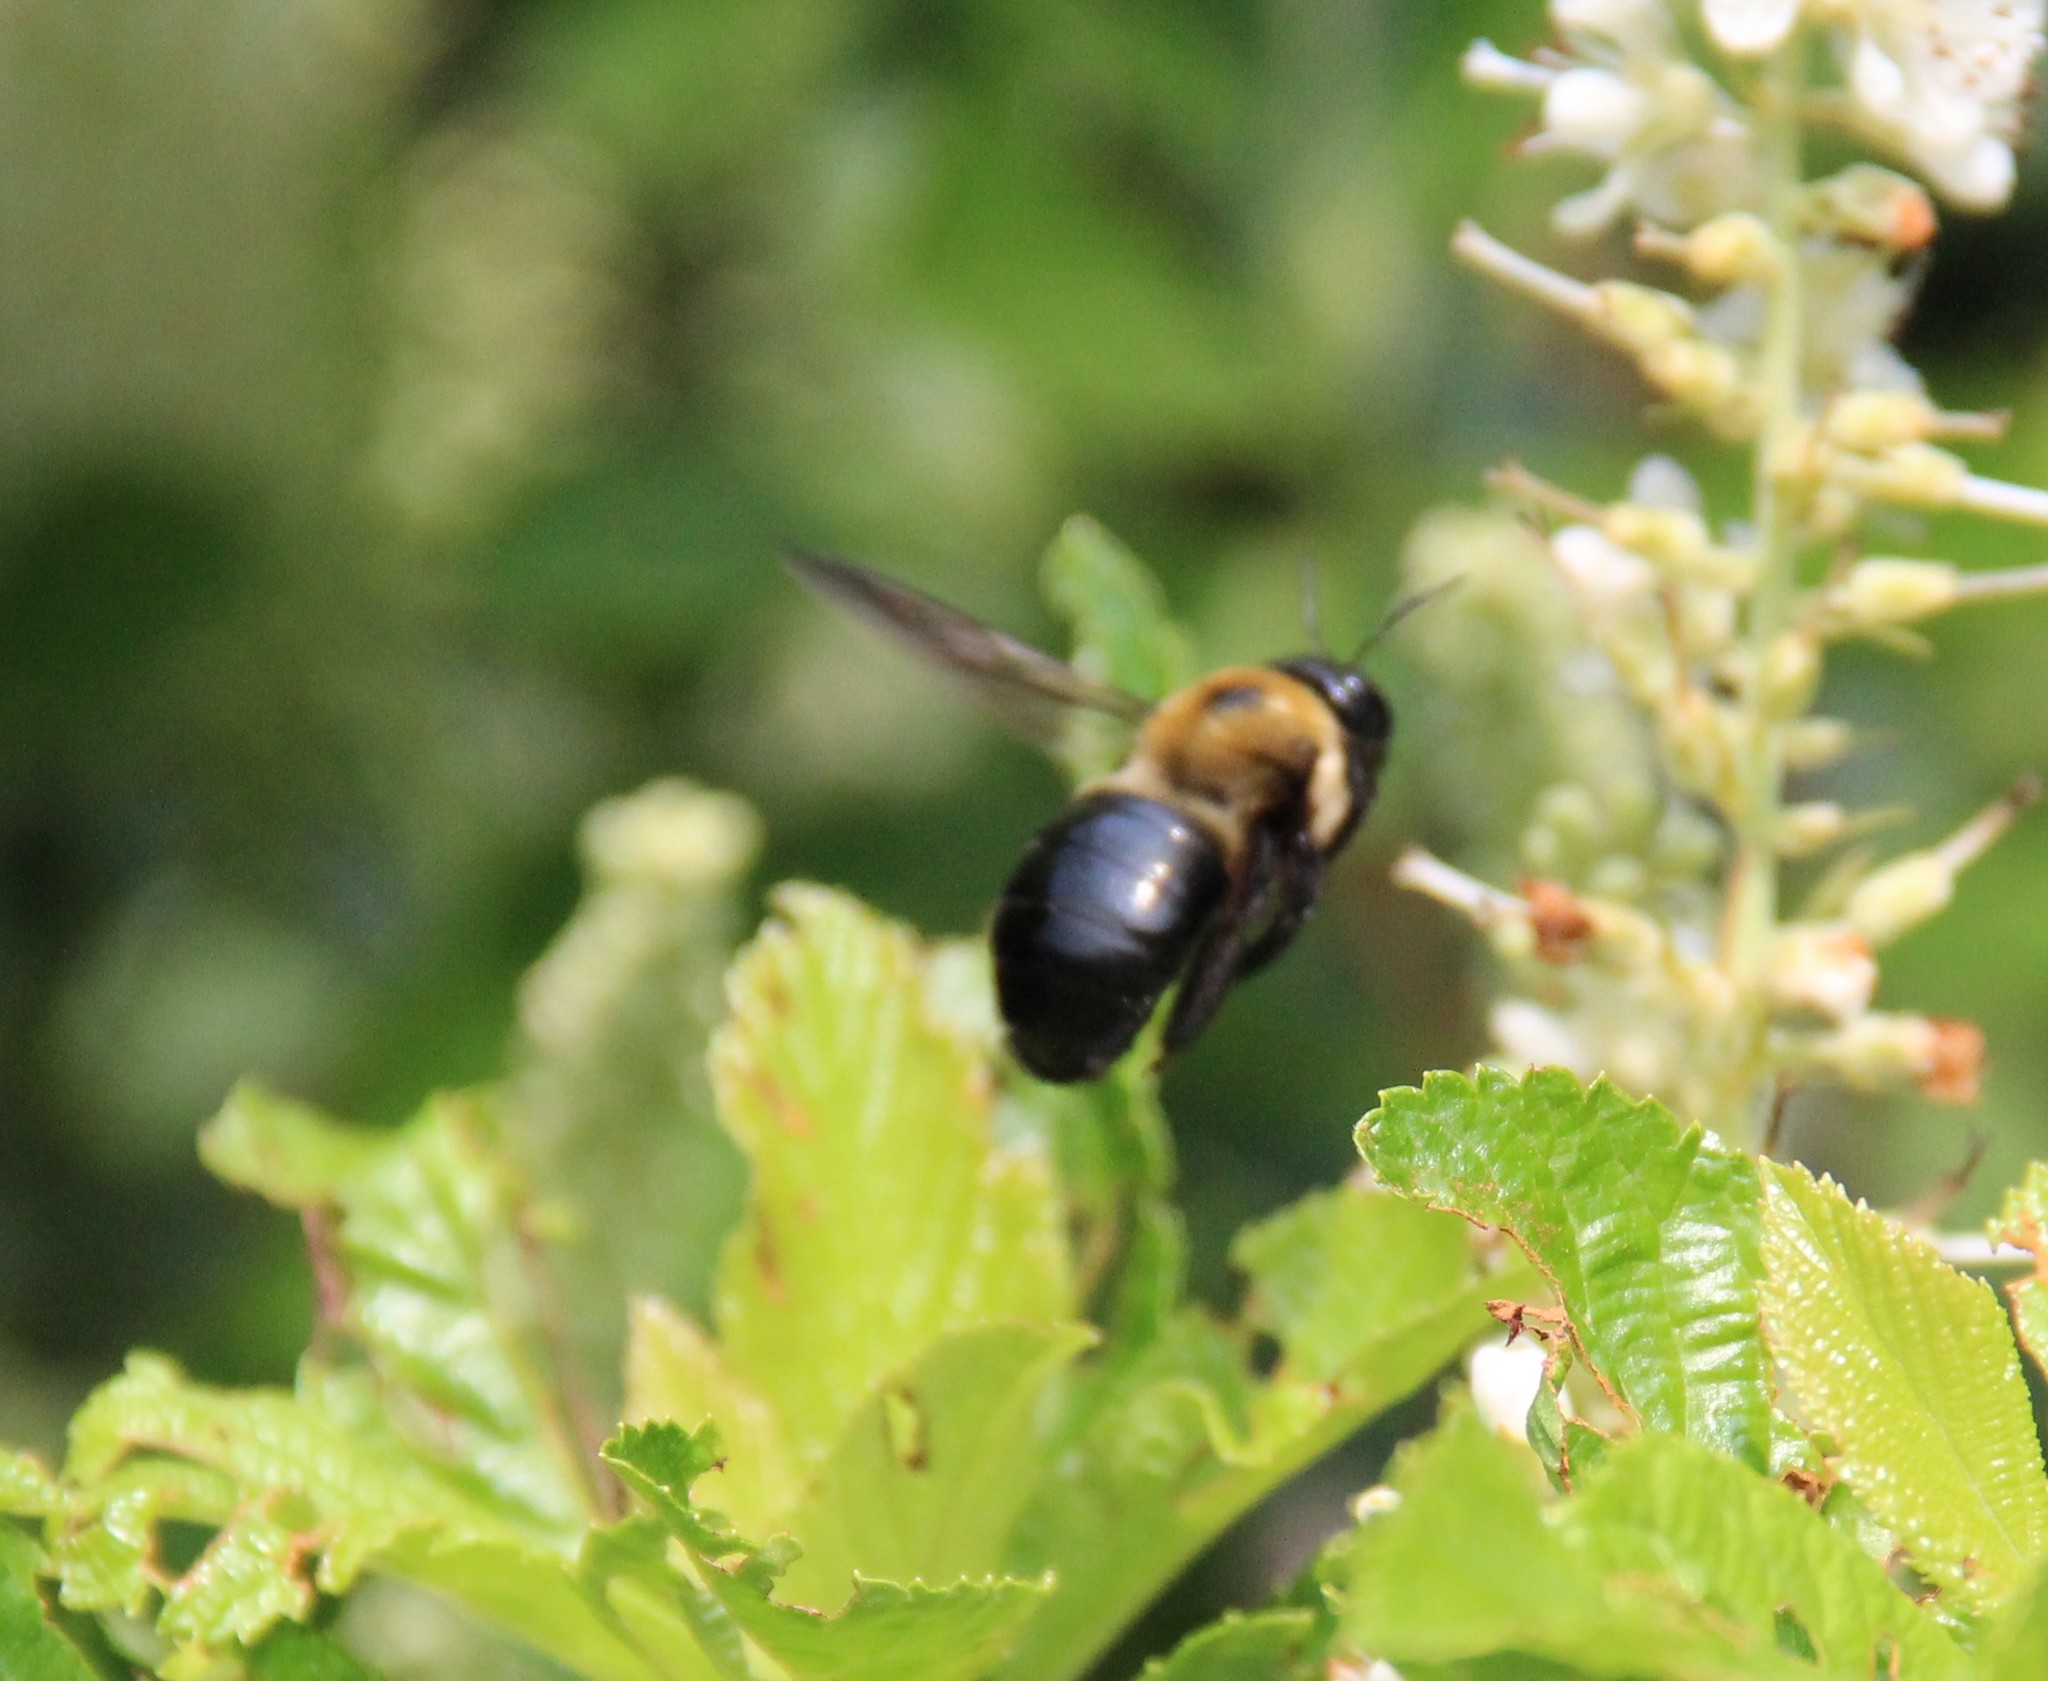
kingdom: Animalia
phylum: Arthropoda
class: Insecta
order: Hymenoptera
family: Apidae
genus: Xylocopa
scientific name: Xylocopa virginica
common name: Carpenter bee
